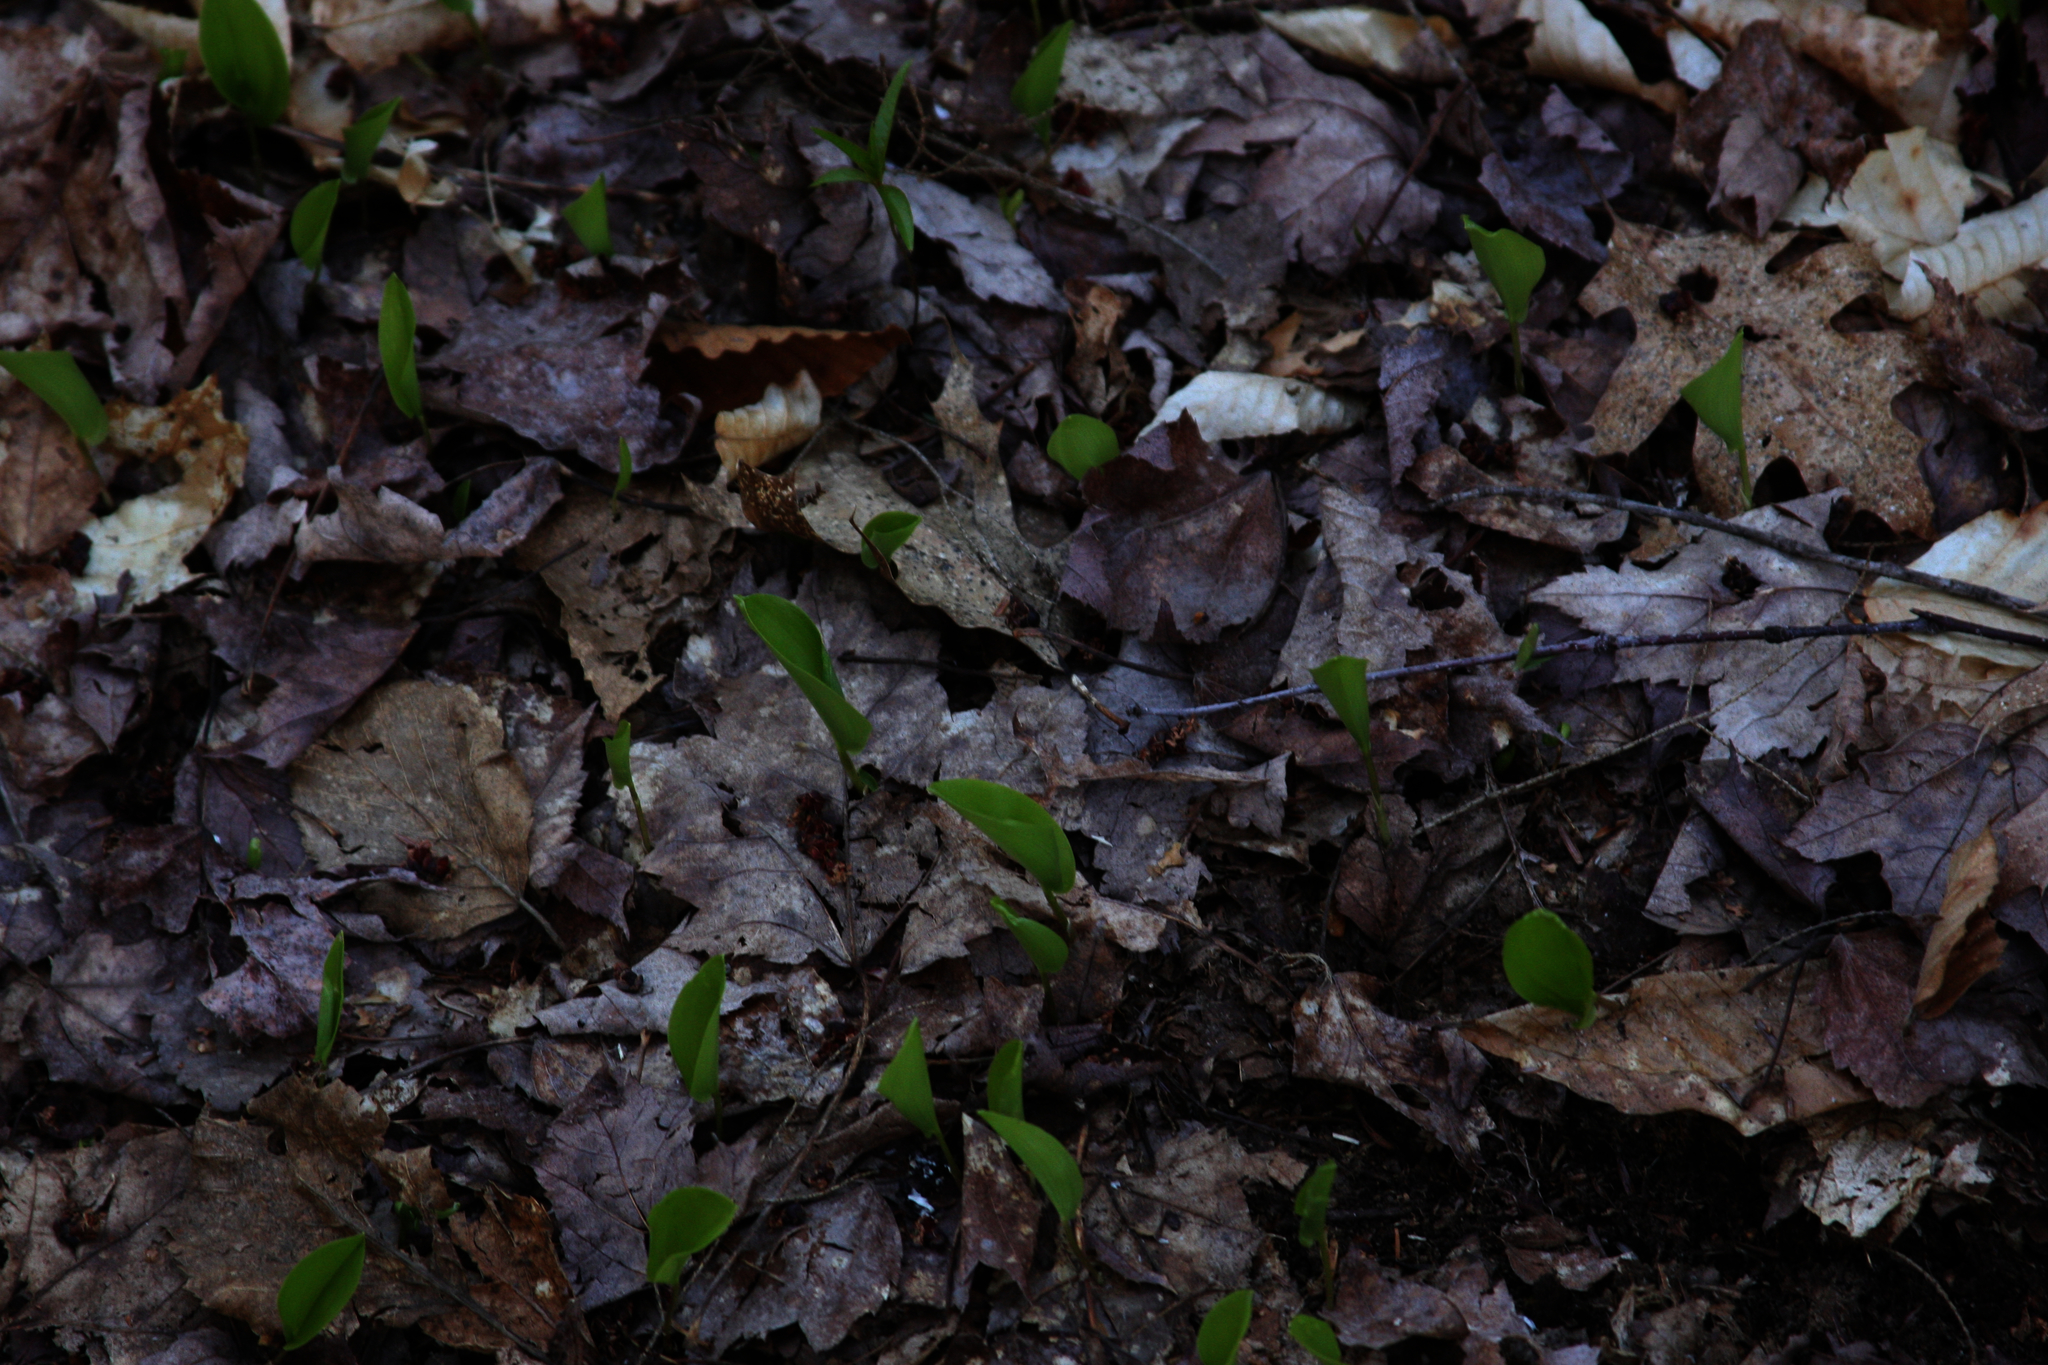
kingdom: Plantae
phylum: Tracheophyta
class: Liliopsida
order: Asparagales
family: Asparagaceae
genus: Maianthemum
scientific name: Maianthemum canadense
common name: False lily-of-the-valley
